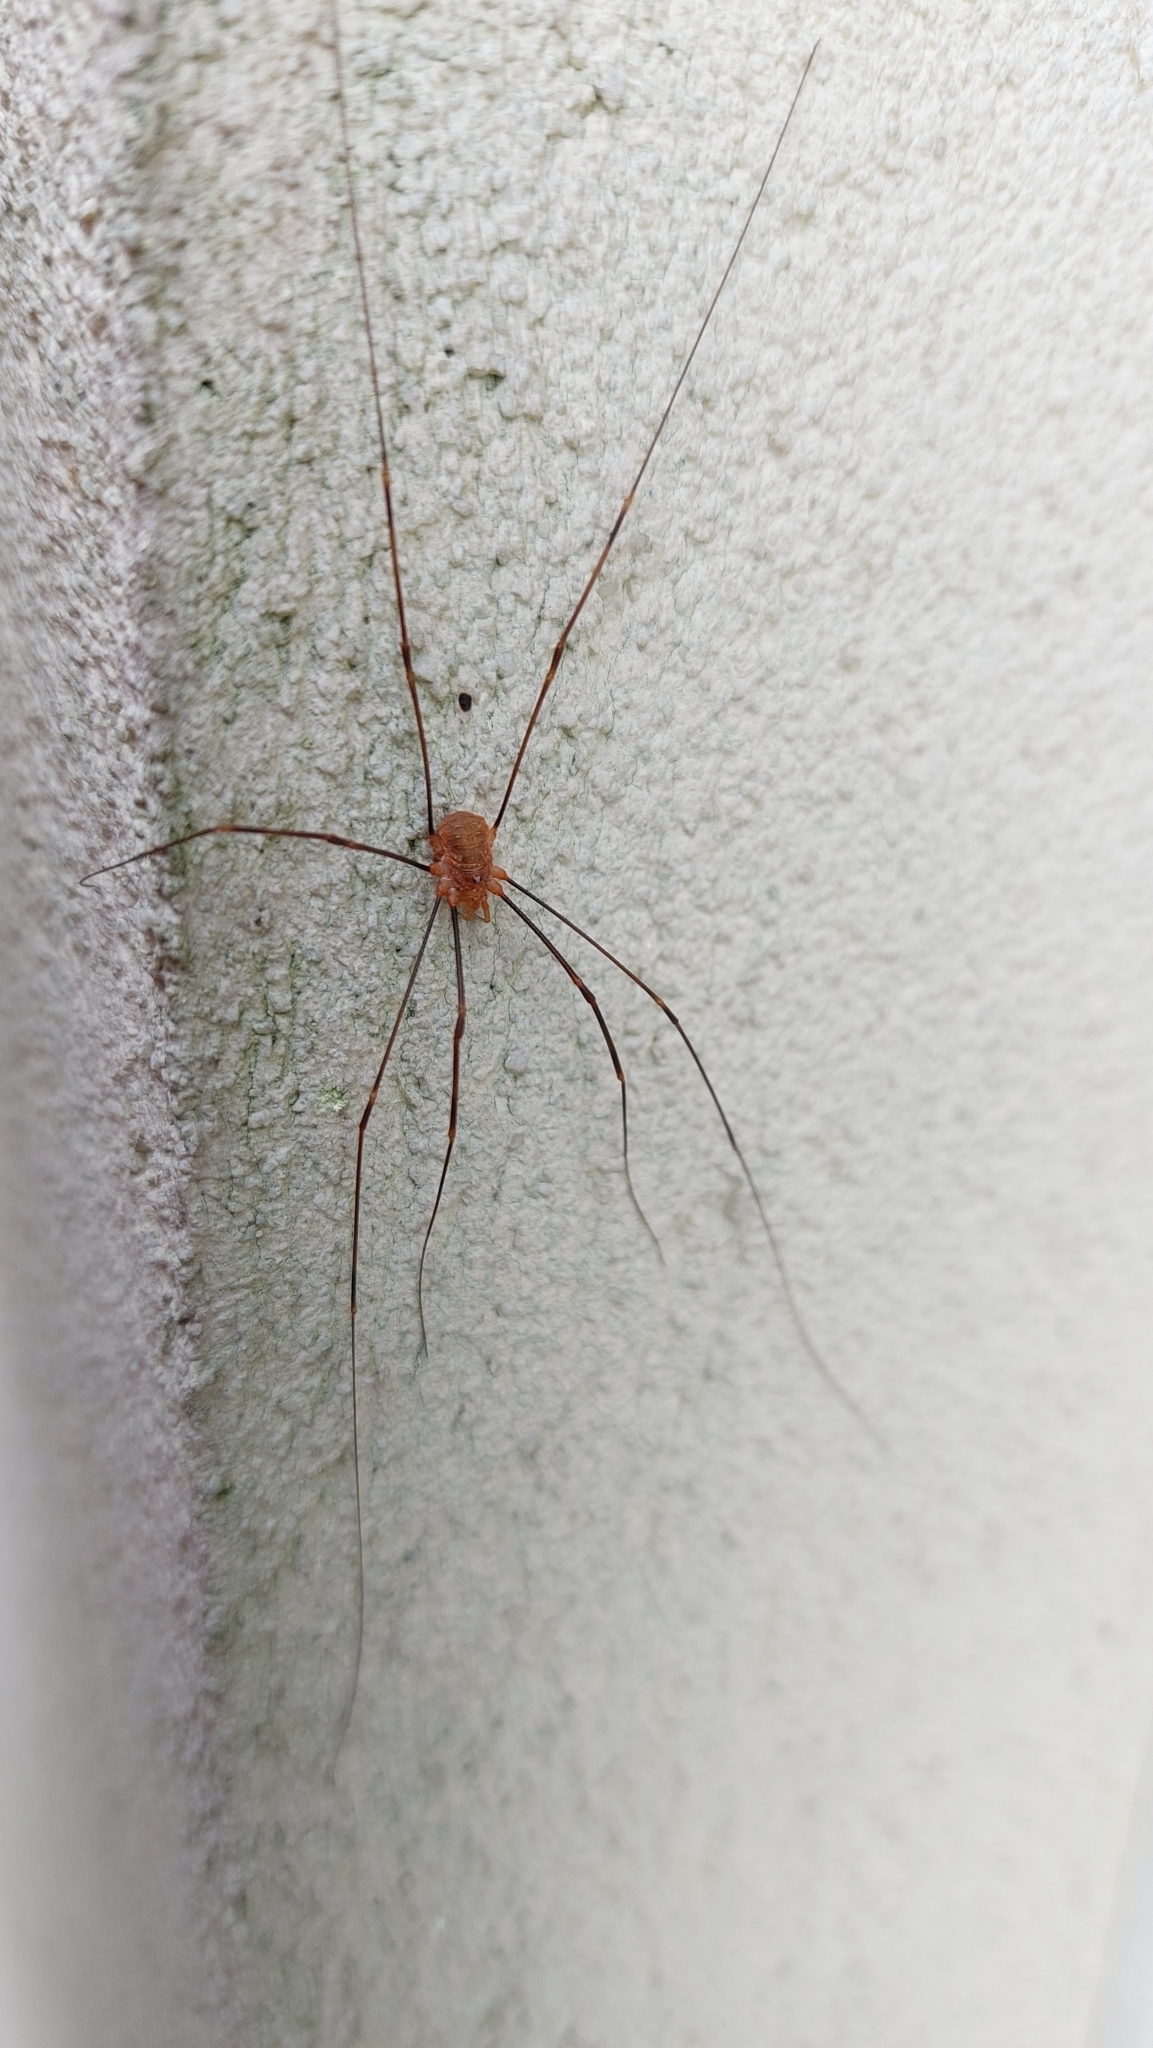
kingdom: Animalia
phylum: Arthropoda
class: Arachnida
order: Opiliones
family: Phalangiidae
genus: Opilio
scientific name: Opilio canestrinii
